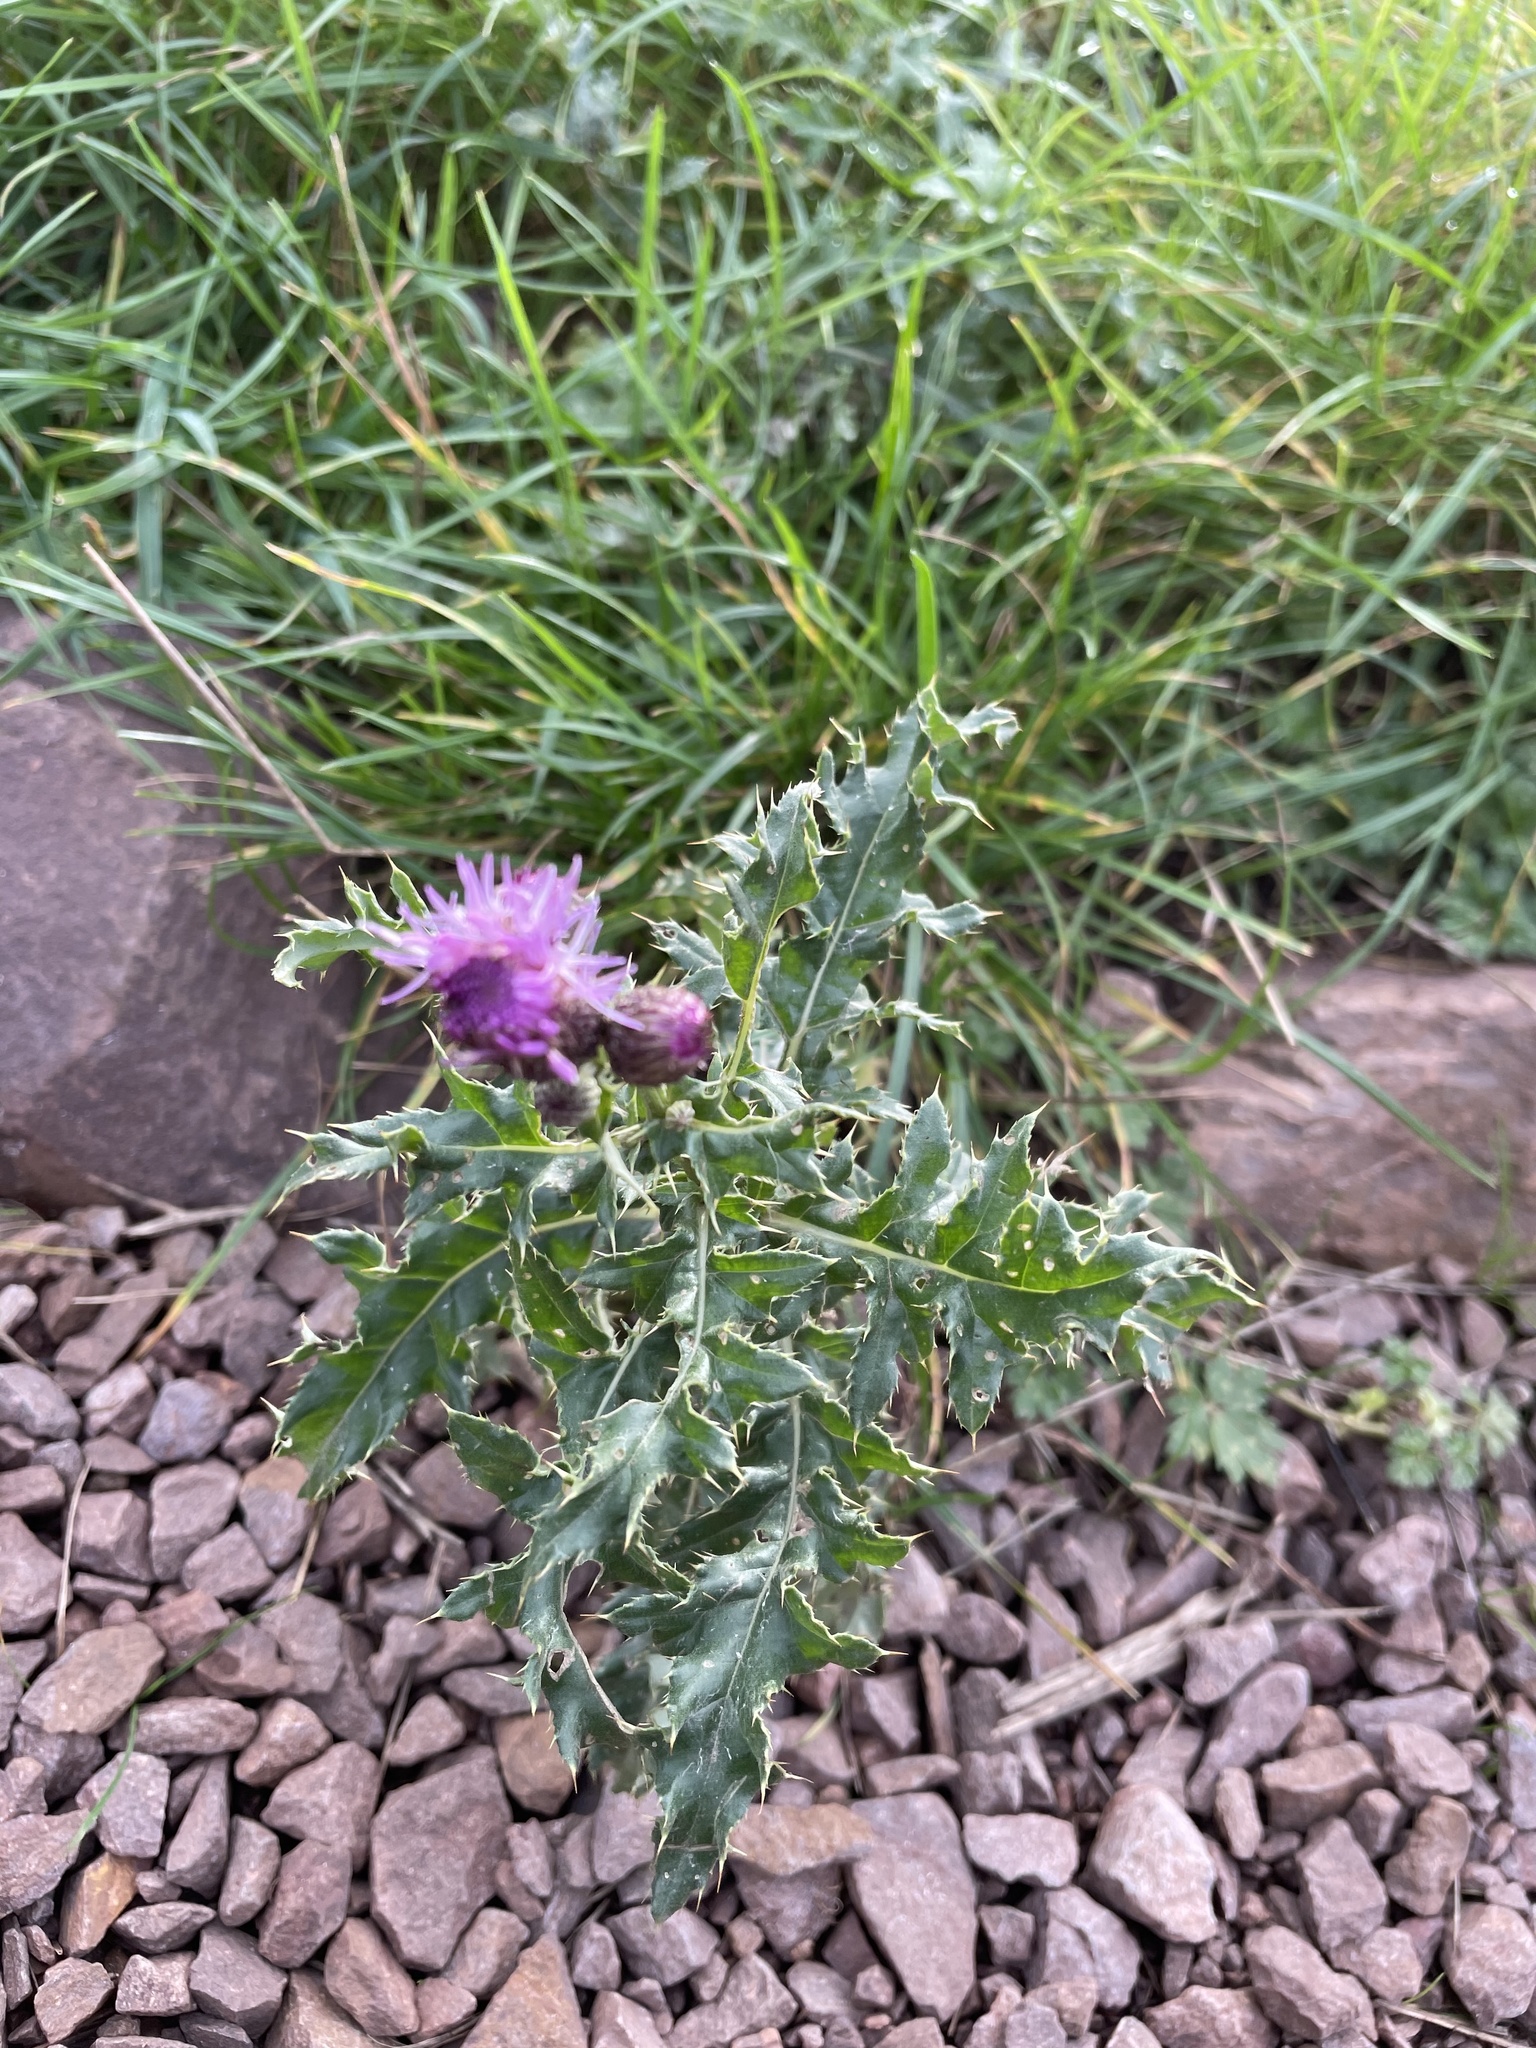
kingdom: Plantae
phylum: Tracheophyta
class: Magnoliopsida
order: Asterales
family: Asteraceae
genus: Cirsium
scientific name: Cirsium arvense
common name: Creeping thistle
